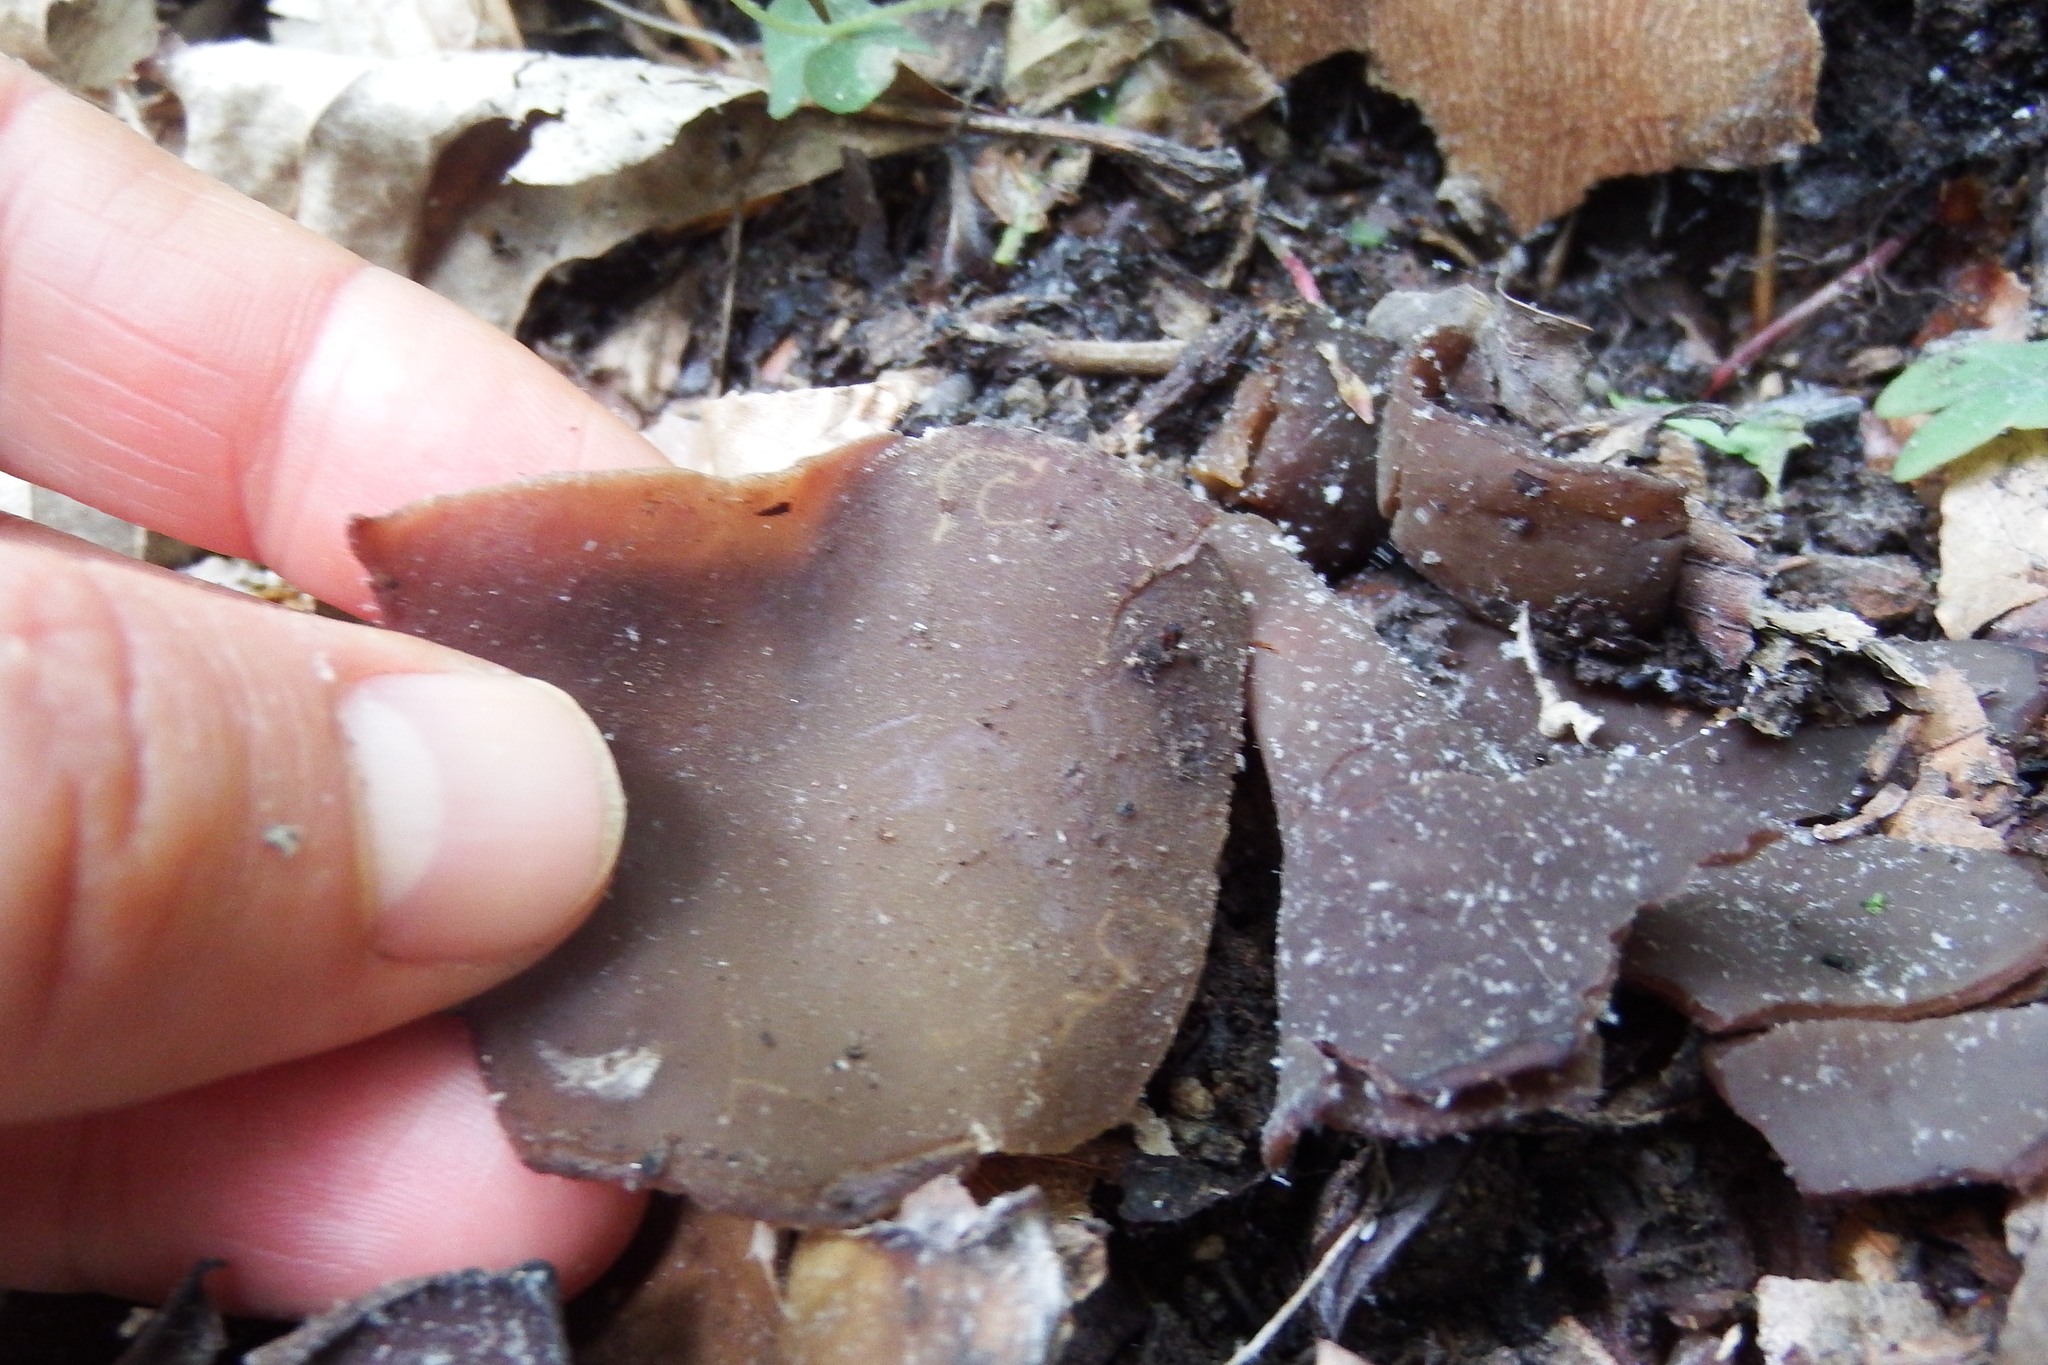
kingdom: Fungi
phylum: Ascomycota
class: Pezizomycetes
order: Pezizales
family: Pezizaceae
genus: Phylloscypha
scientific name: Phylloscypha phyllogena
